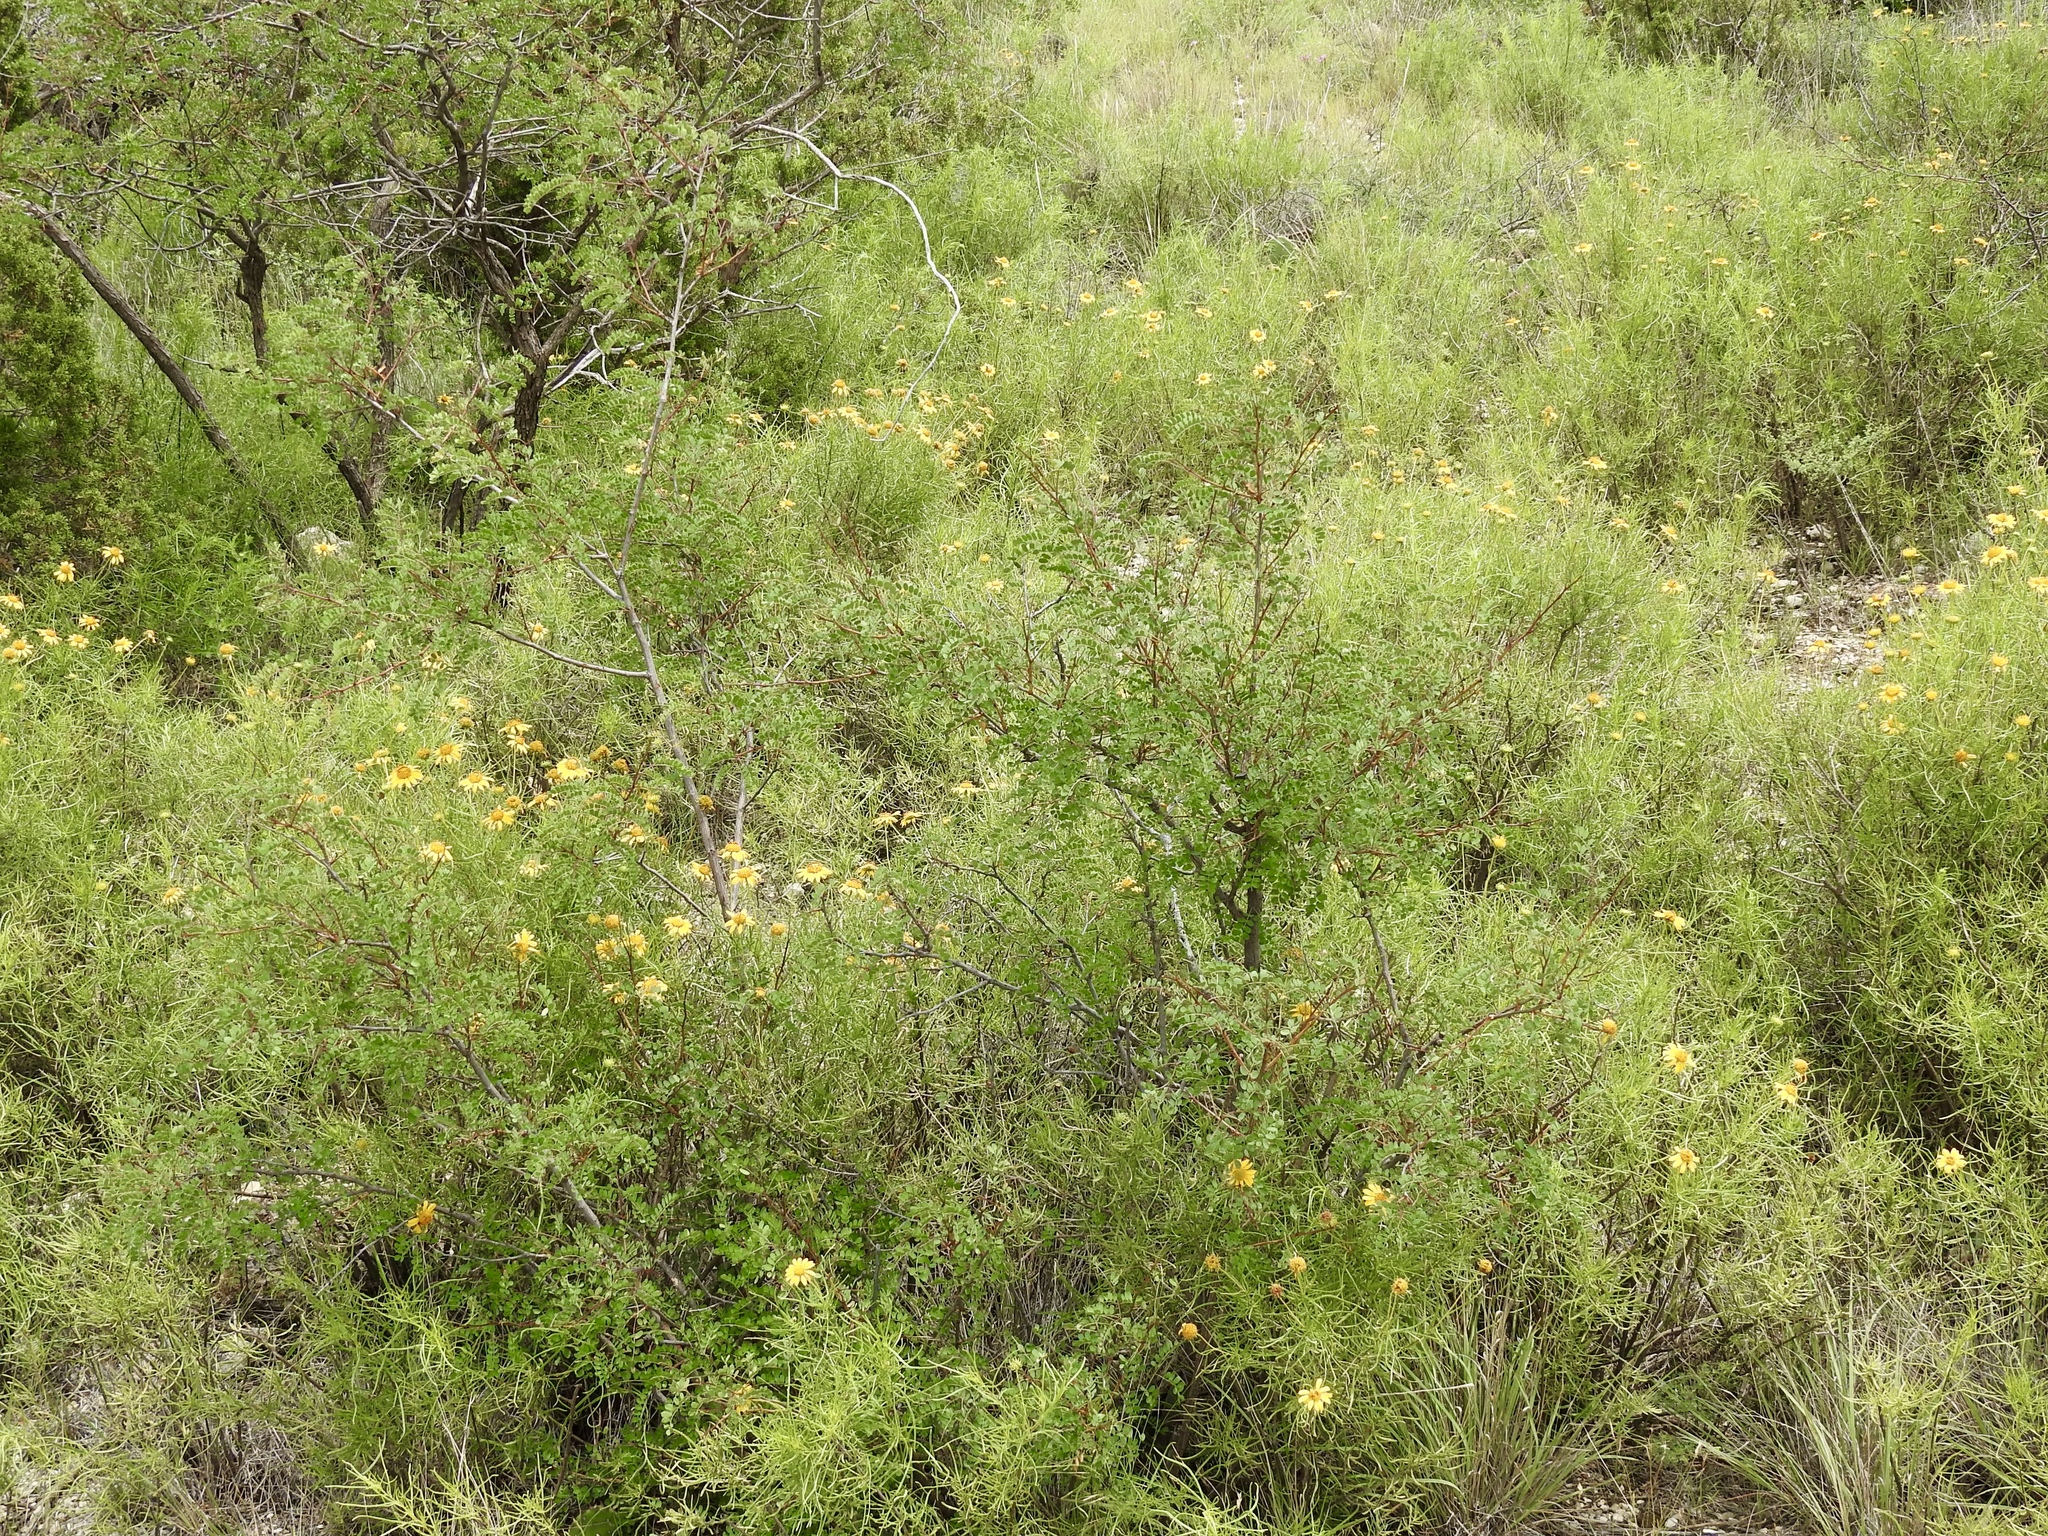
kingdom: Plantae
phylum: Tracheophyta
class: Magnoliopsida
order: Fabales
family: Fabaceae
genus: Senegalia
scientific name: Senegalia roemeriana
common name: Roemer's acacia
